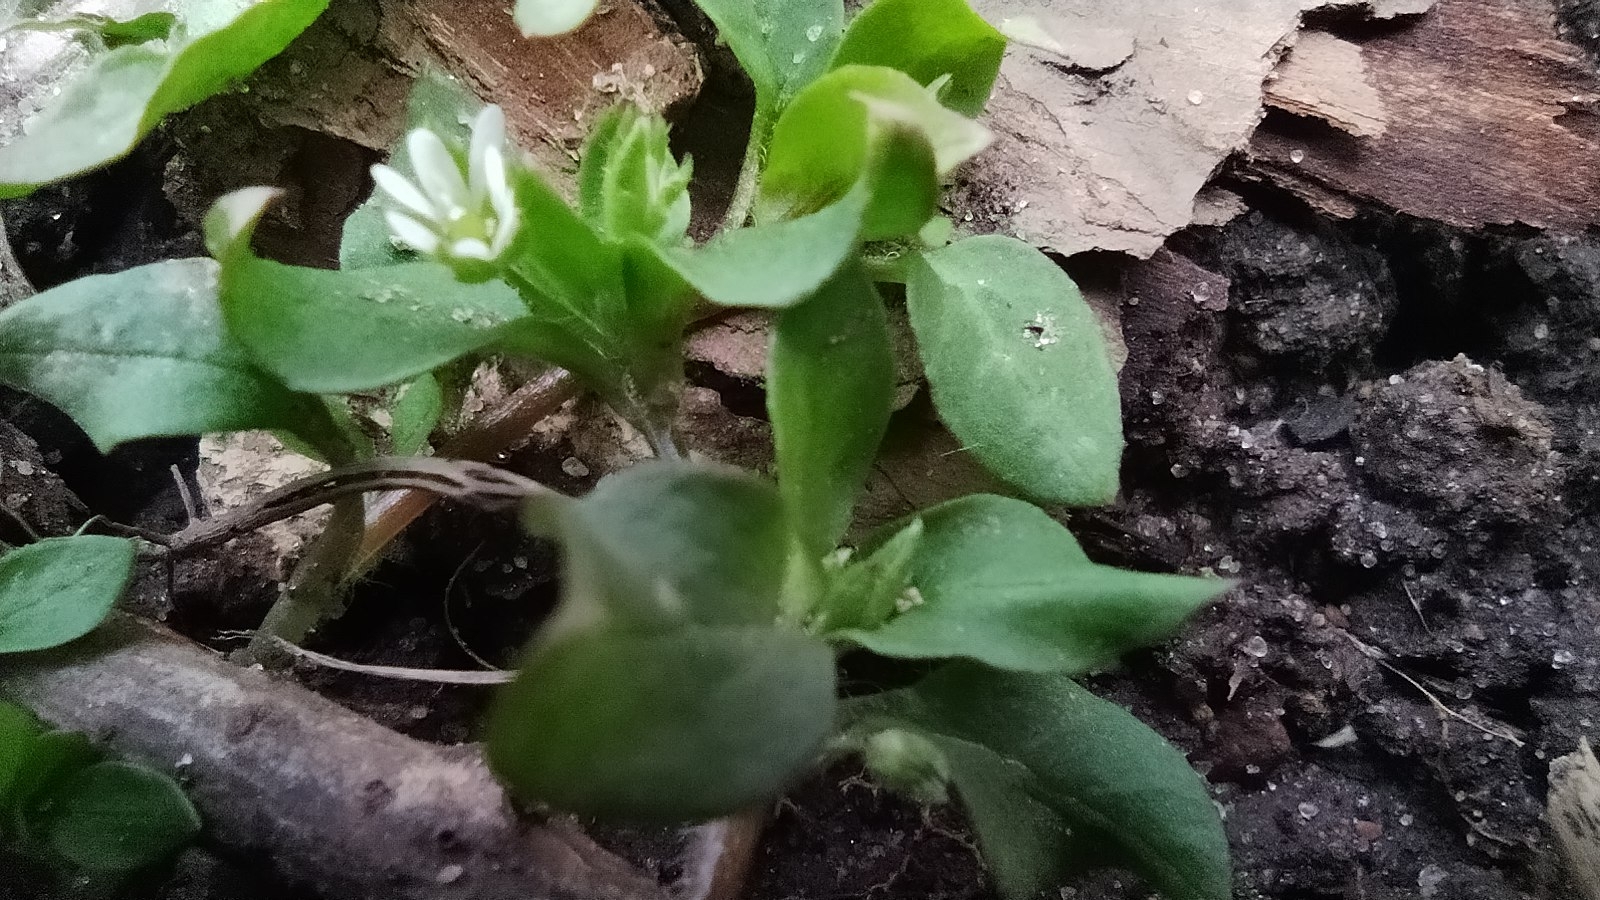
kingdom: Plantae
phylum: Tracheophyta
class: Magnoliopsida
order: Caryophyllales
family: Caryophyllaceae
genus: Stellaria
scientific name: Stellaria media
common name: Common chickweed
